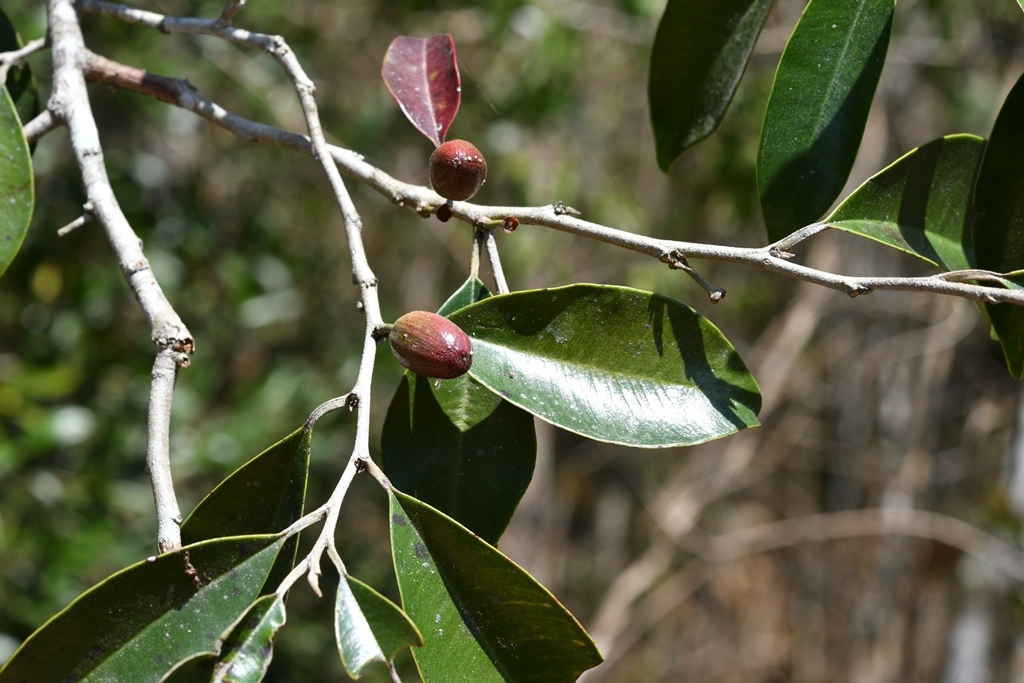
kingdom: Plantae
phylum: Tracheophyta
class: Magnoliopsida
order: Ericales
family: Sapotaceae
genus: Chrysophyllum
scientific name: Chrysophyllum mexicanum
